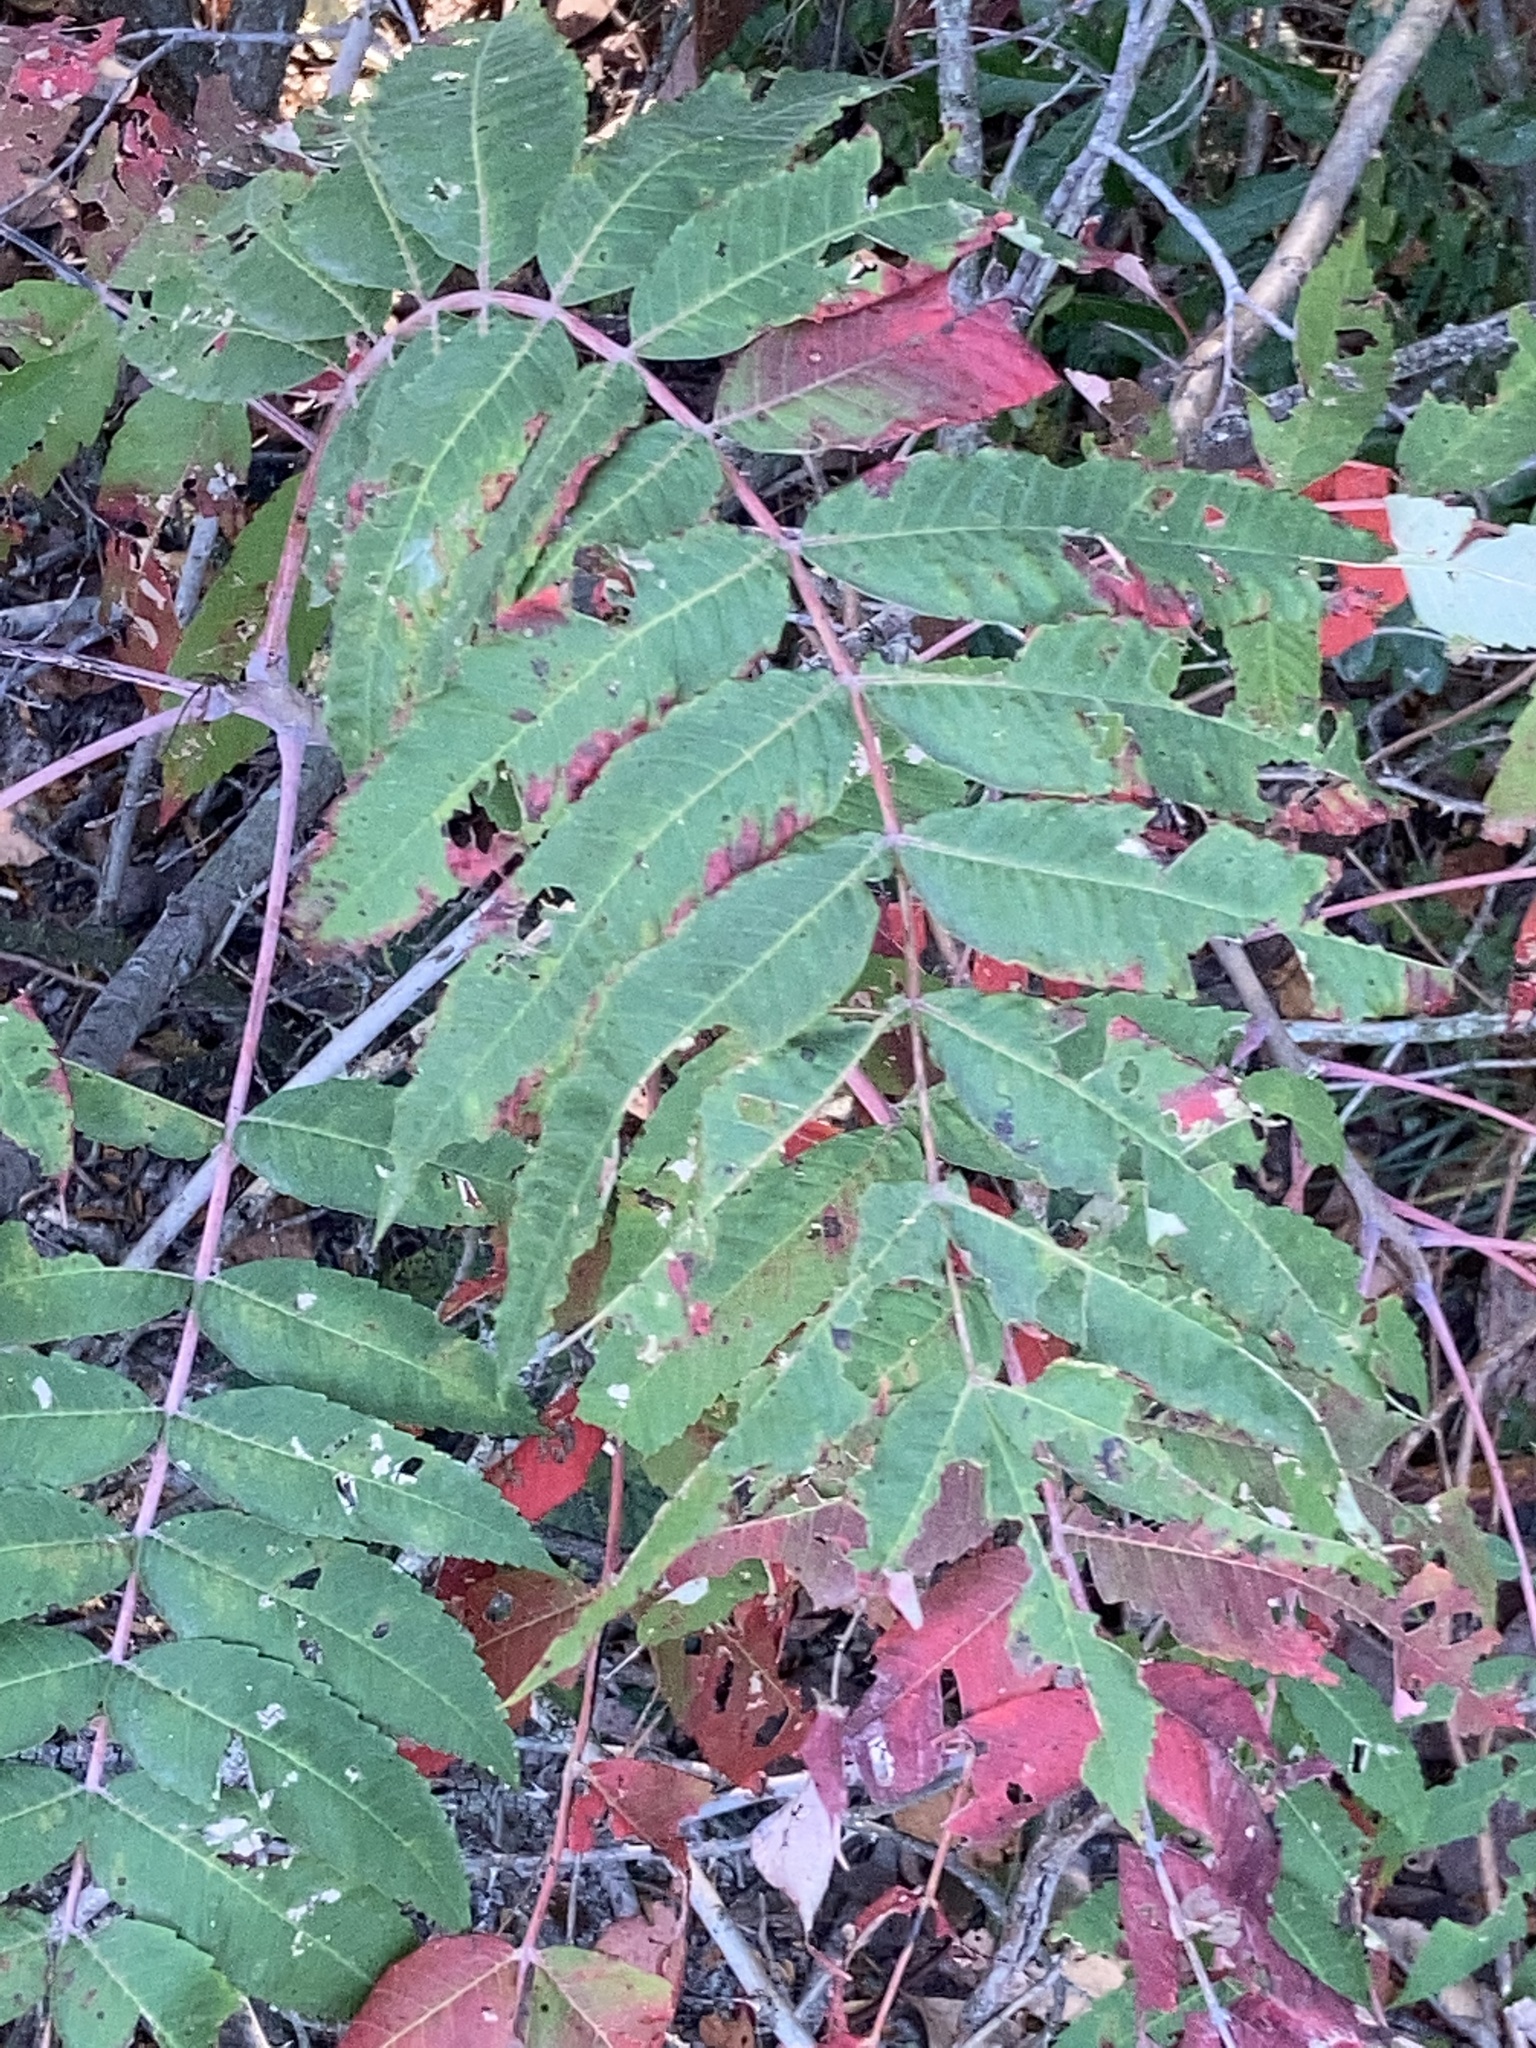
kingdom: Plantae
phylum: Tracheophyta
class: Magnoliopsida
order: Sapindales
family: Anacardiaceae
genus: Rhus
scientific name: Rhus glabra
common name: Scarlet sumac
